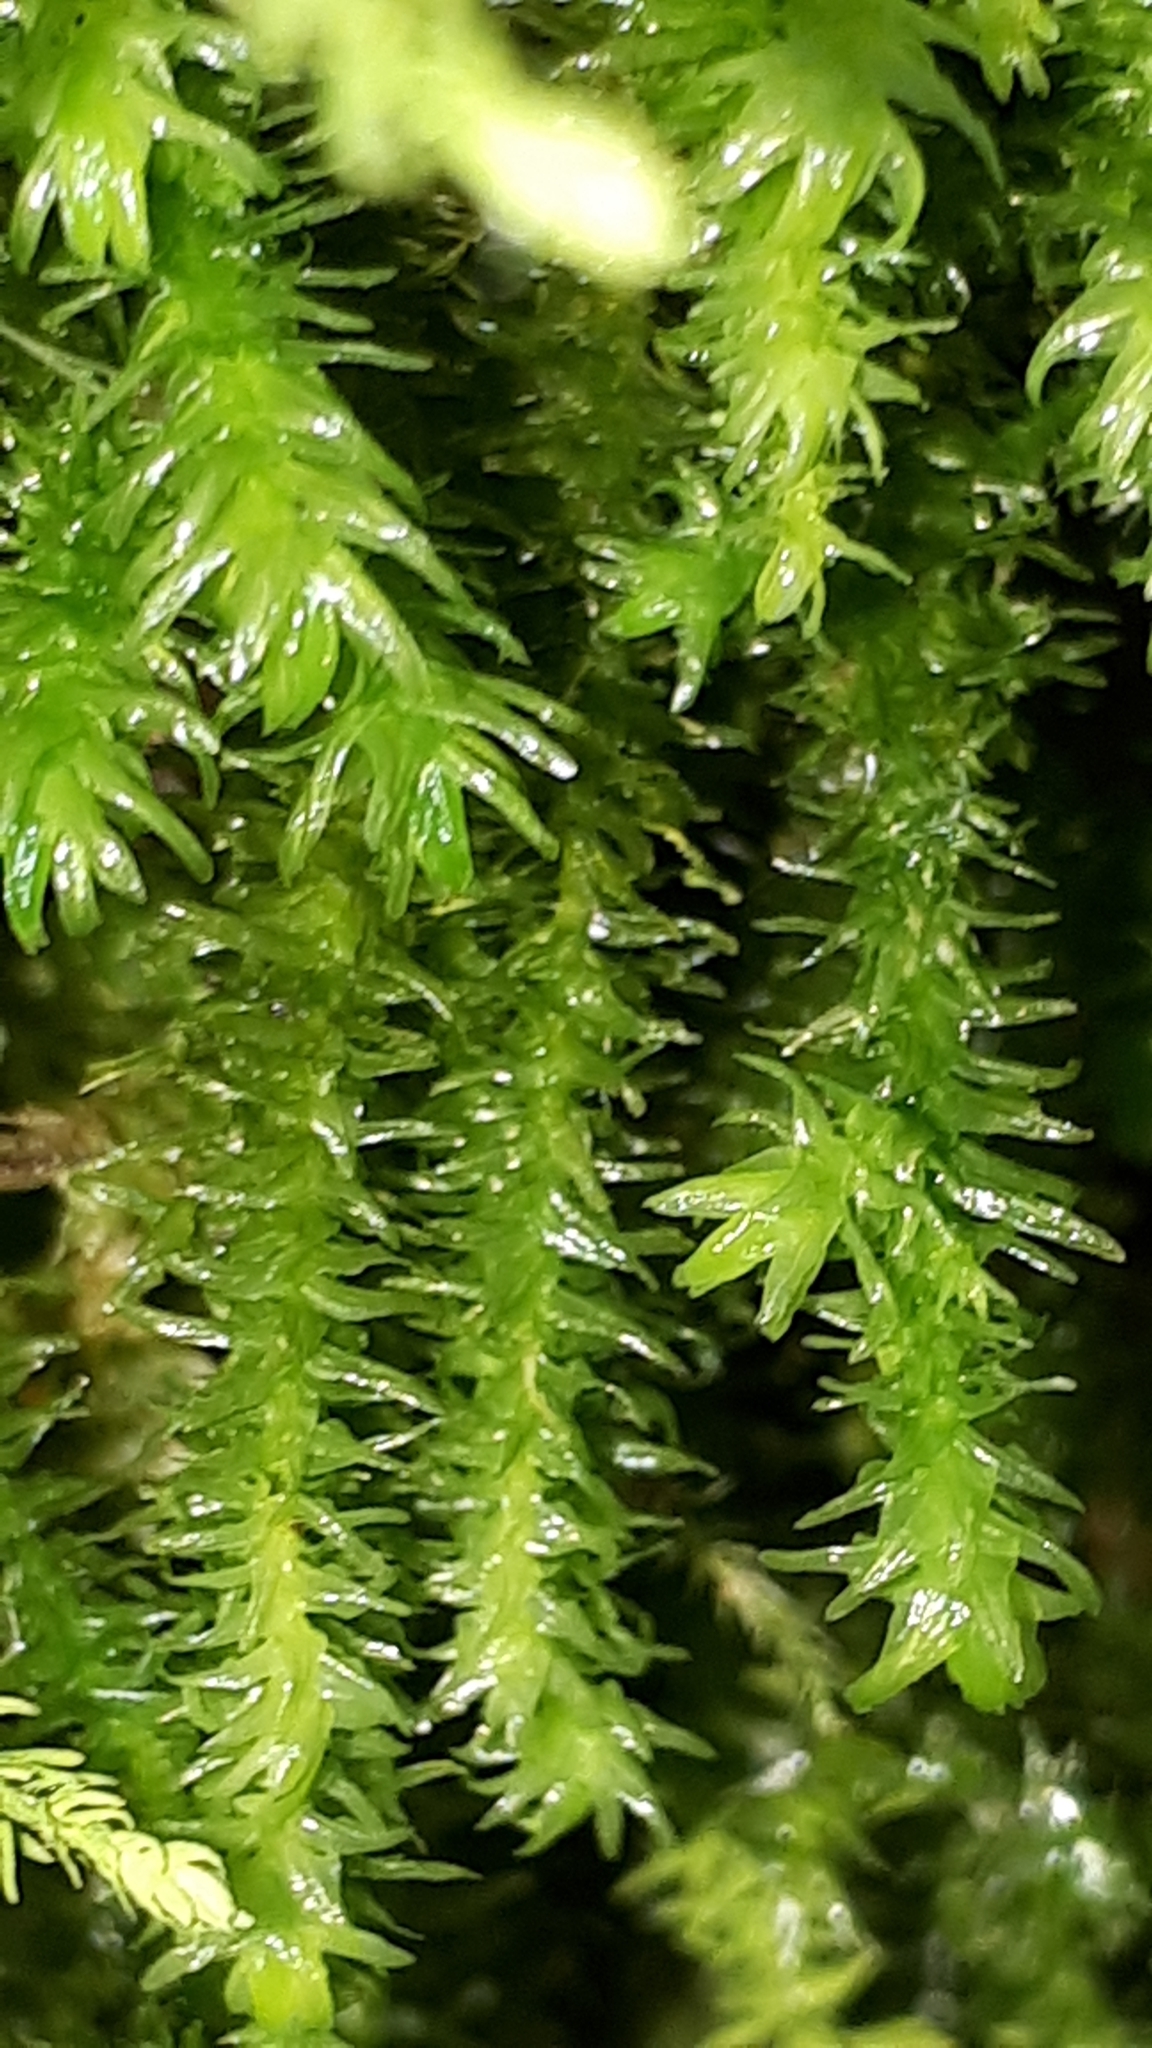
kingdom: Plantae
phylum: Bryophyta
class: Bryopsida
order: Hypnales
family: Anomodontaceae
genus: Anomodon
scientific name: Anomodon viticulosus
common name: Tall anomodon
